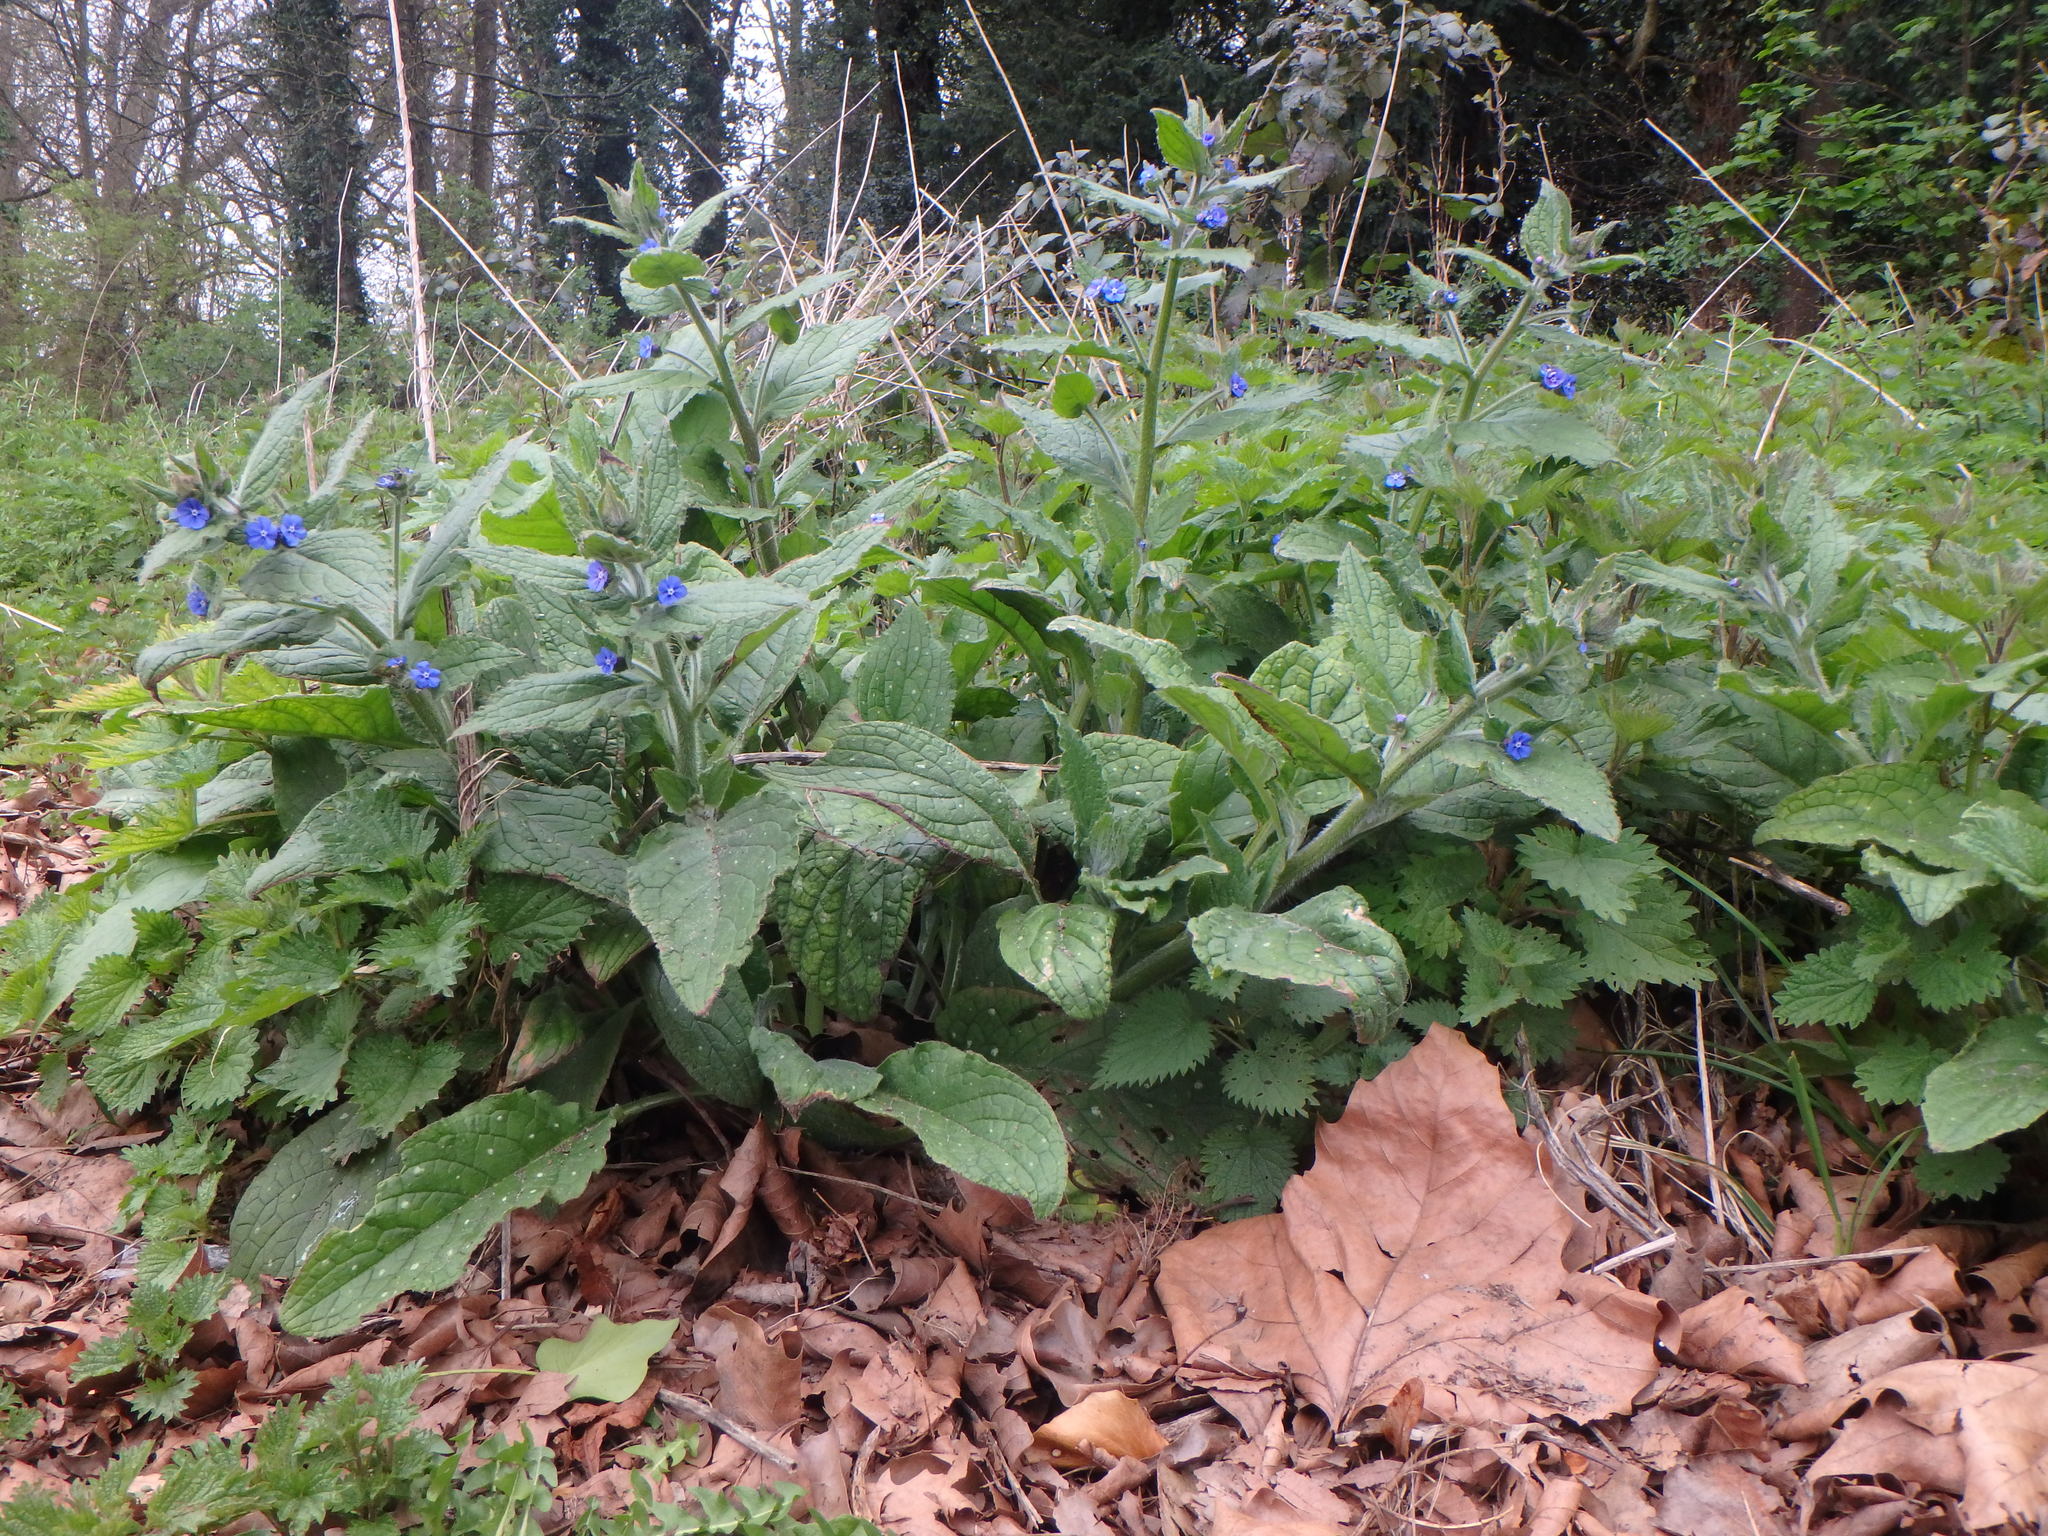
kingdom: Plantae
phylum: Tracheophyta
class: Magnoliopsida
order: Boraginales
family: Boraginaceae
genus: Pentaglottis
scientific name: Pentaglottis sempervirens
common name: Green alkanet
